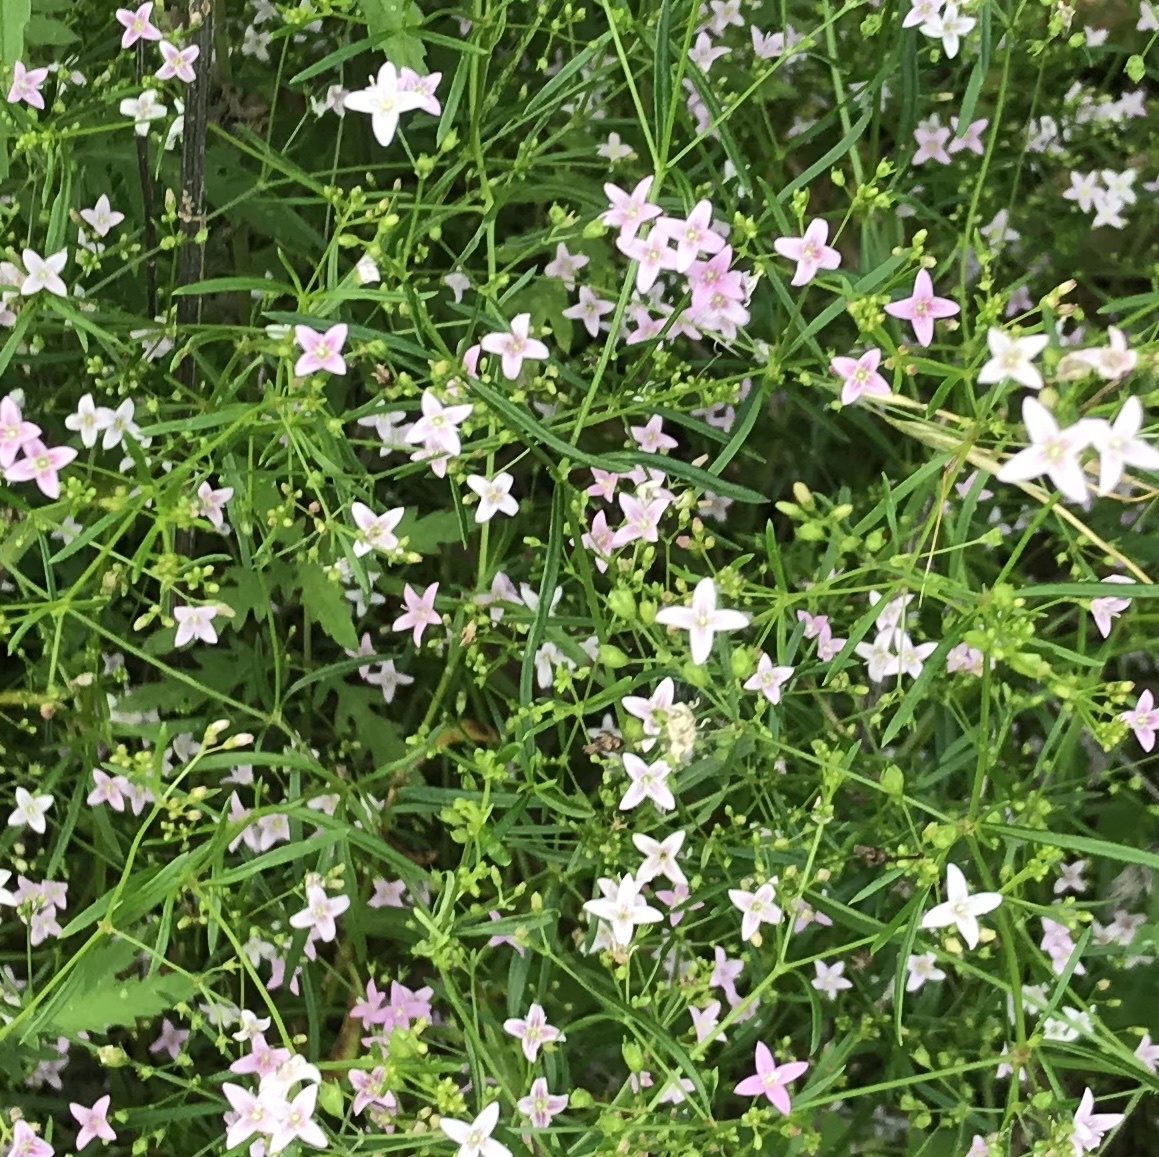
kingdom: Plantae
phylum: Tracheophyta
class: Magnoliopsida
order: Gentianales
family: Rubiaceae
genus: Stenaria
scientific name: Stenaria nigricans
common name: Diamondflowers
